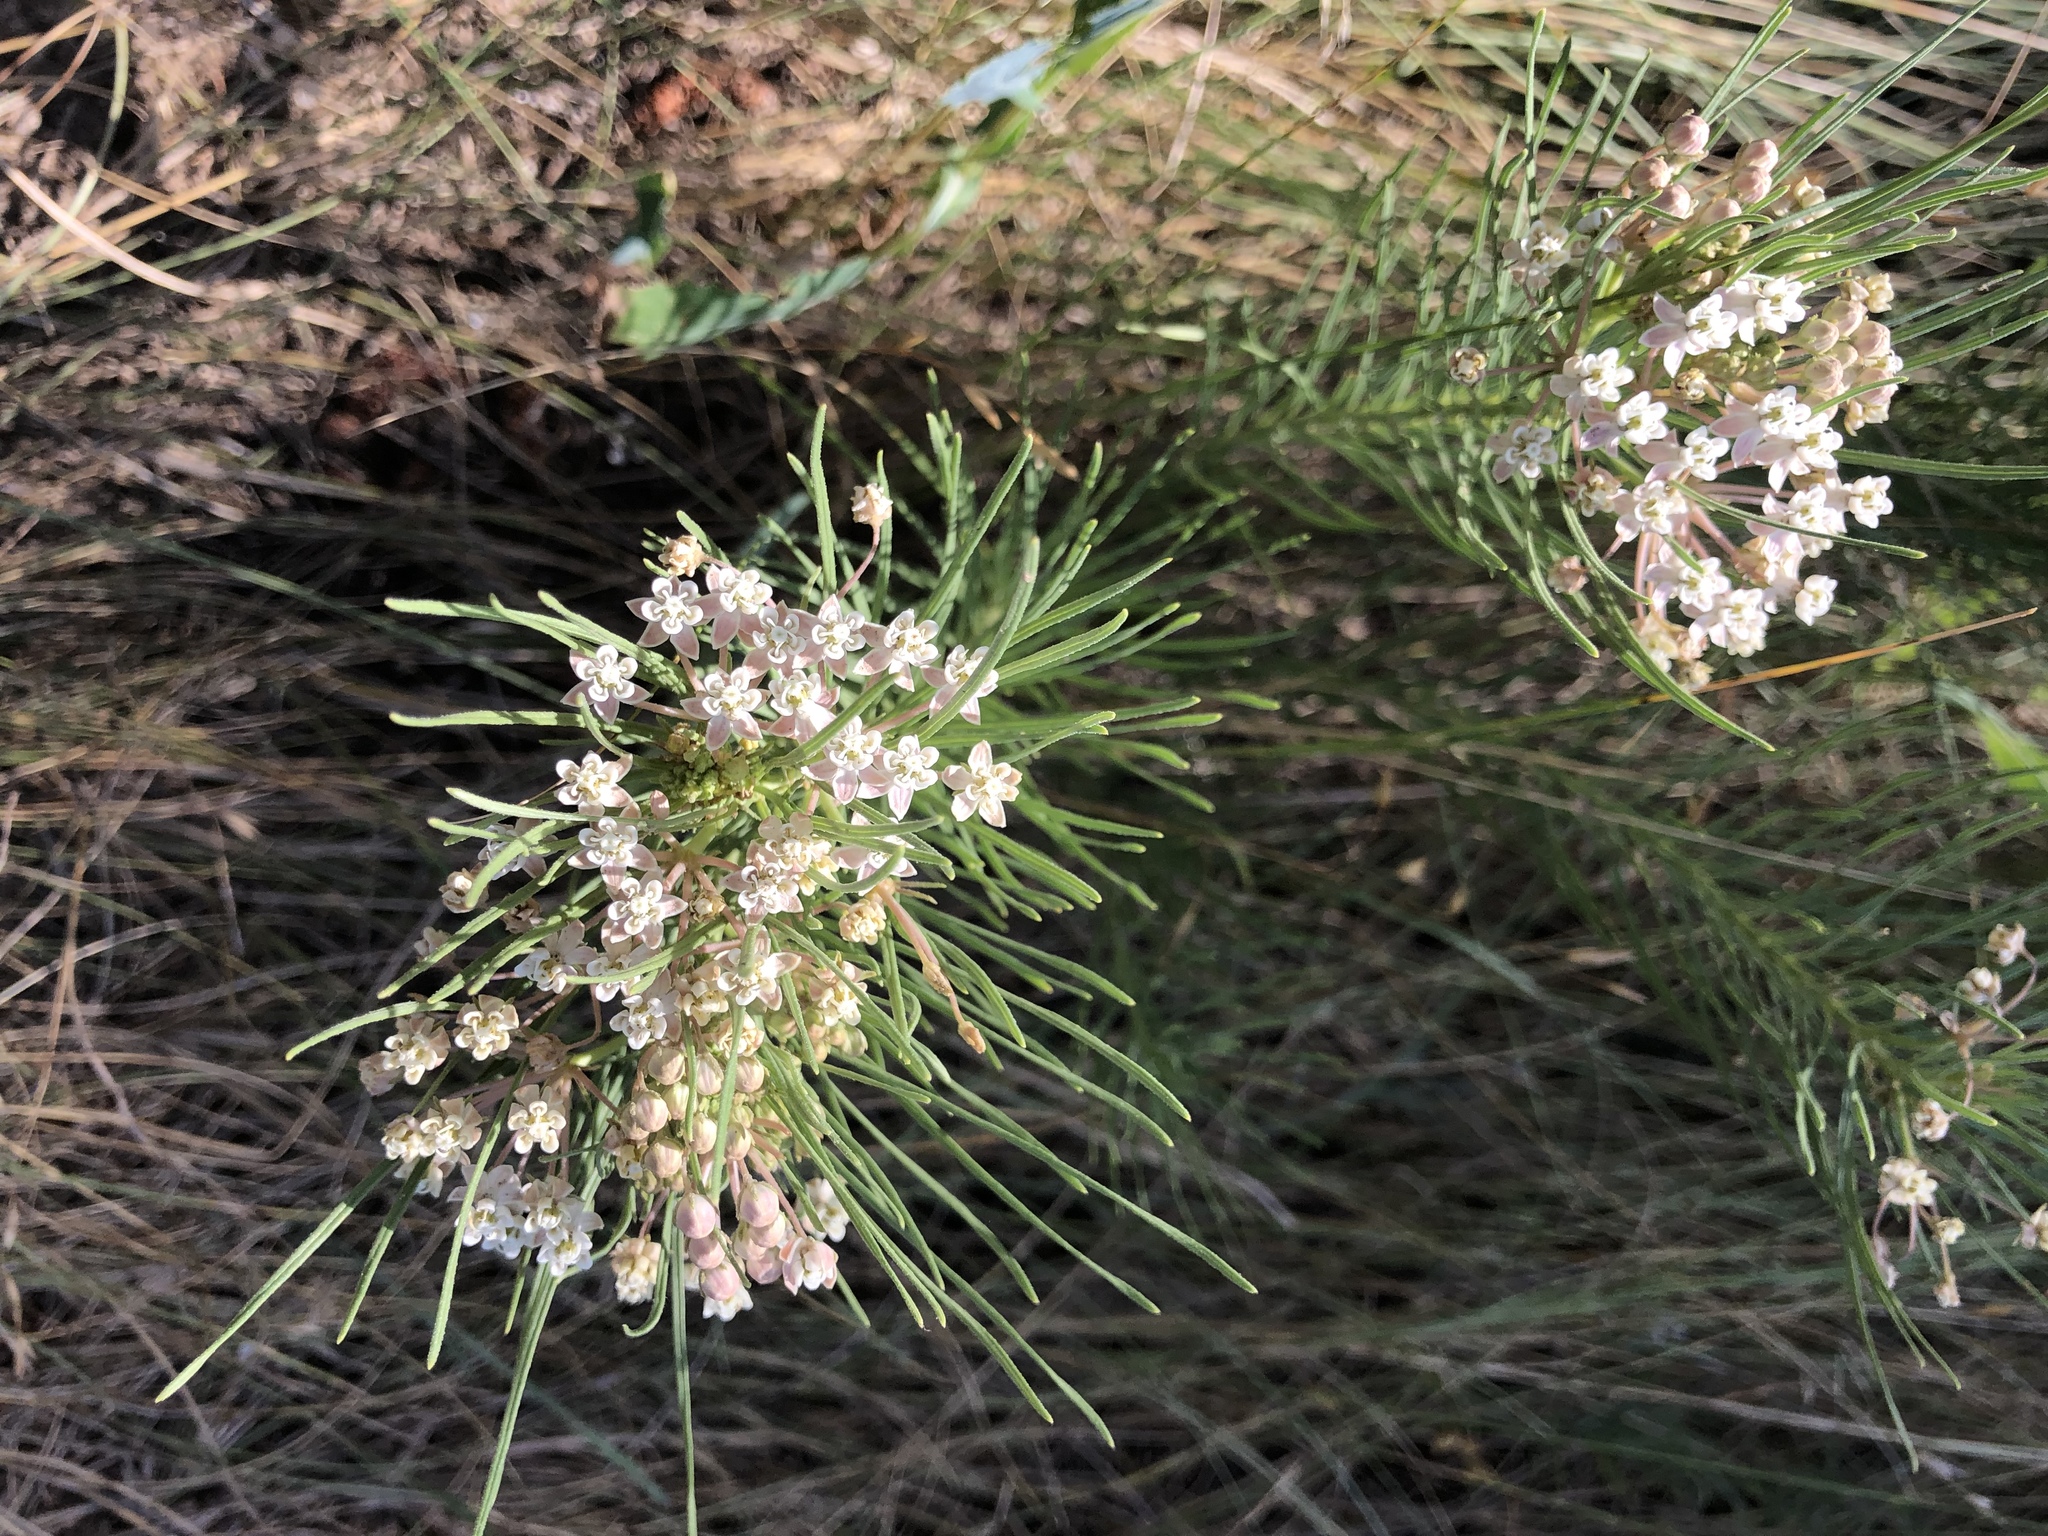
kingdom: Plantae
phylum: Tracheophyta
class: Magnoliopsida
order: Gentianales
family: Apocynaceae
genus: Asclepias
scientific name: Asclepias pumila
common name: Dwarf milkweed
